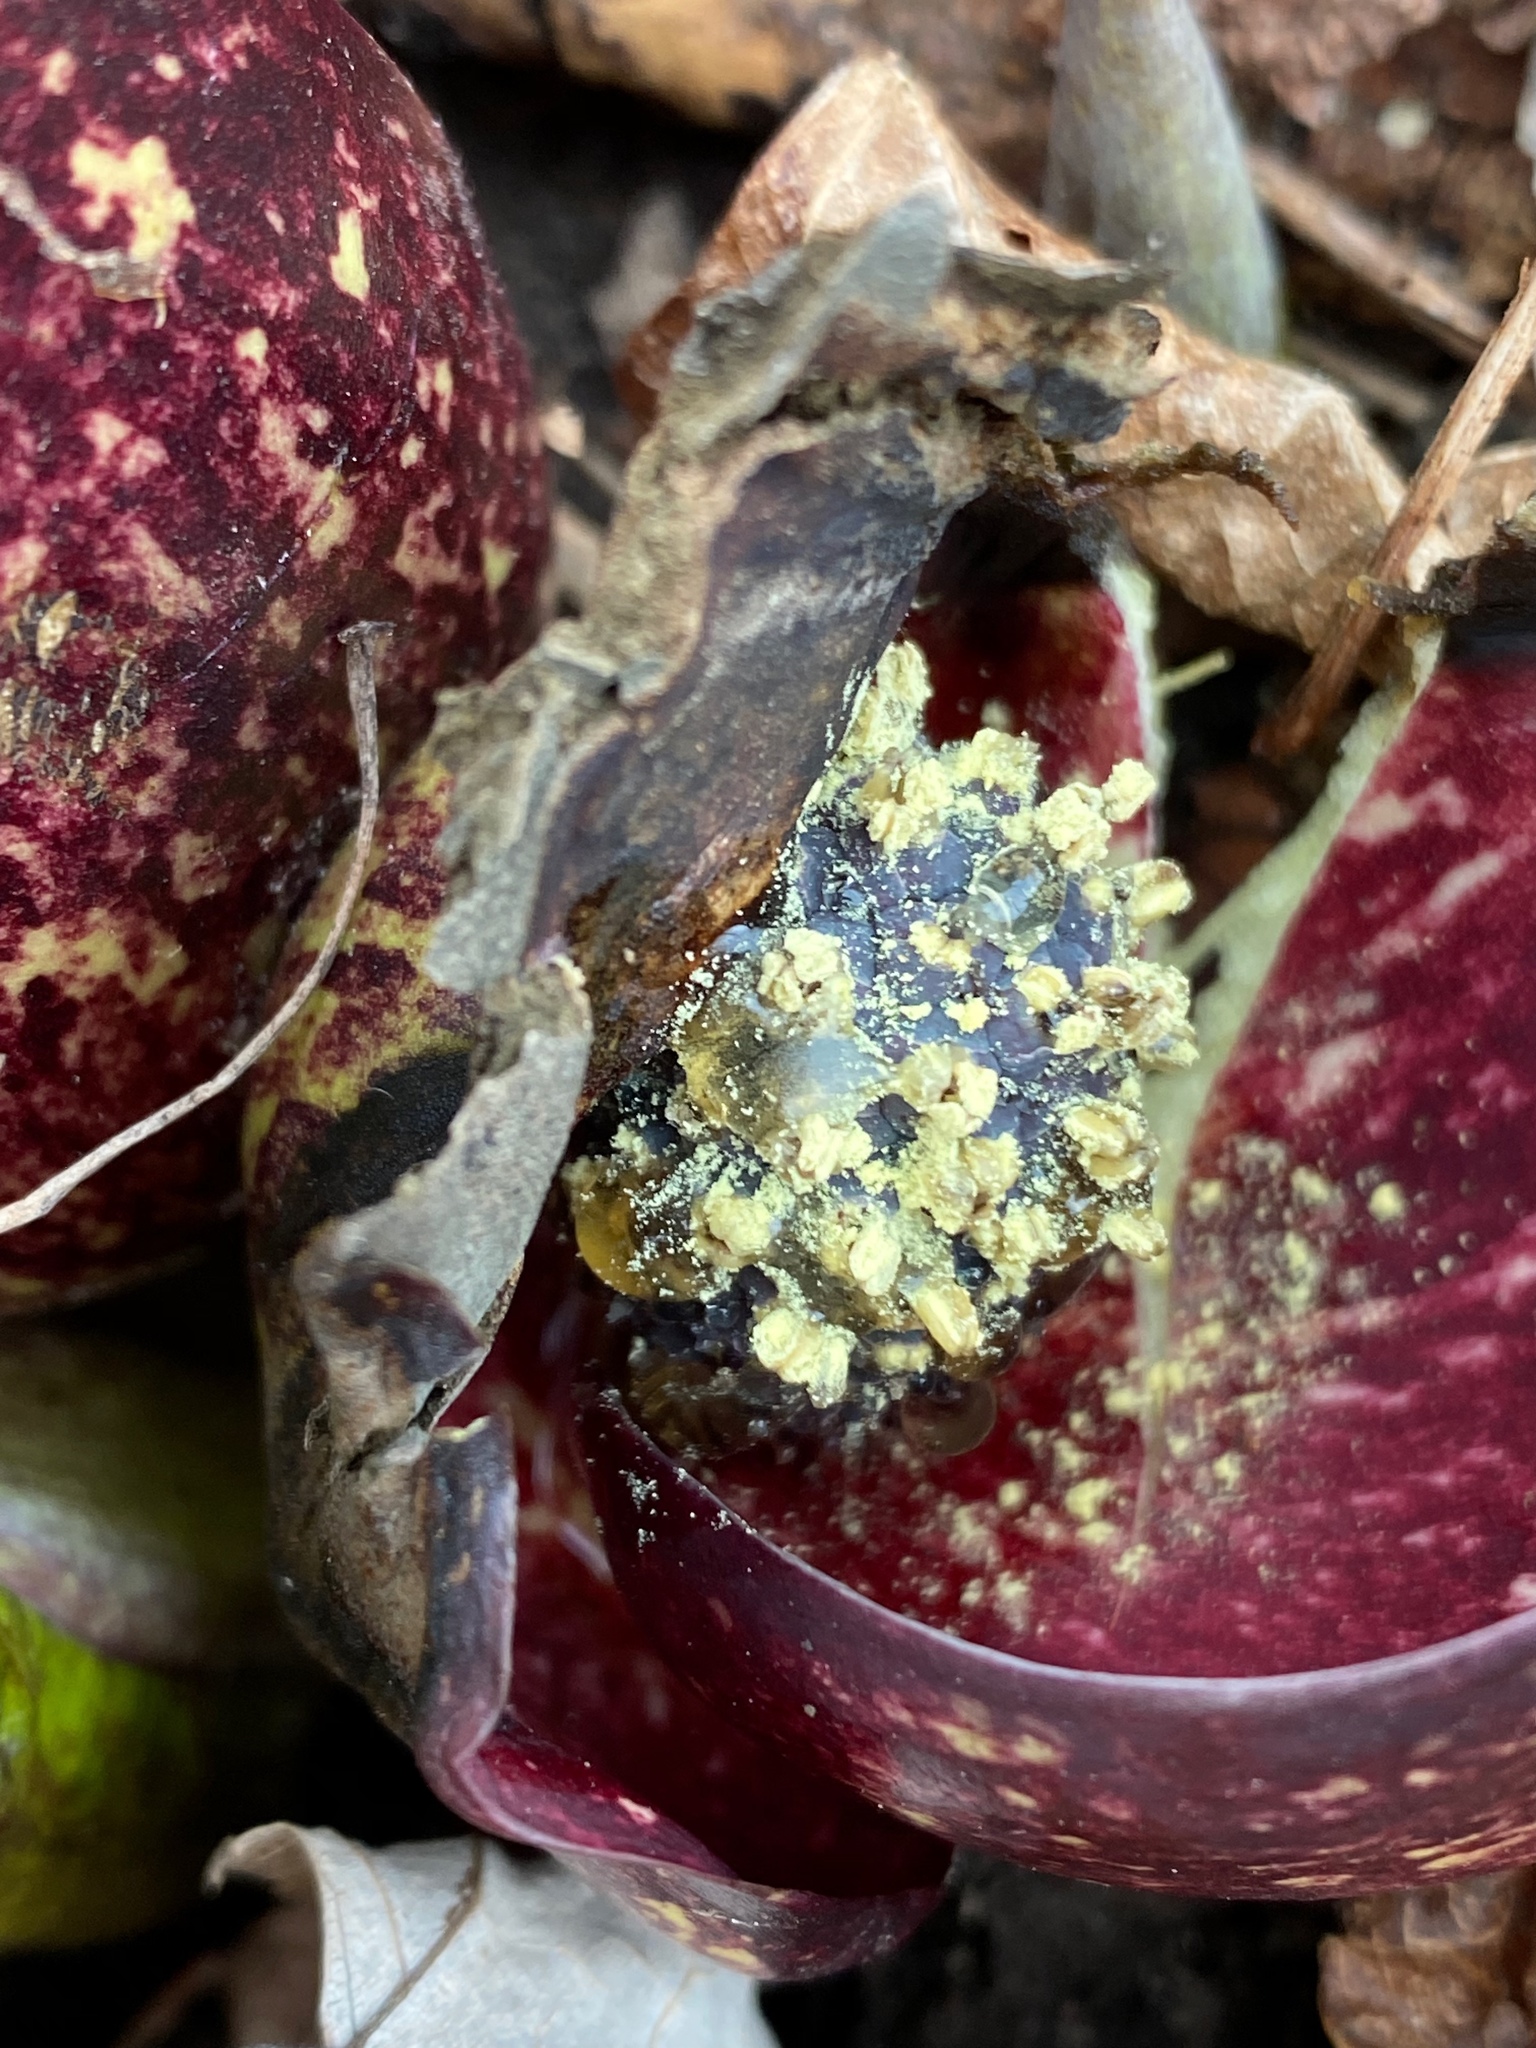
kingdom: Plantae
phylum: Tracheophyta
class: Liliopsida
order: Alismatales
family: Araceae
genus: Symplocarpus
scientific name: Symplocarpus foetidus
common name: Eastern skunk cabbage
